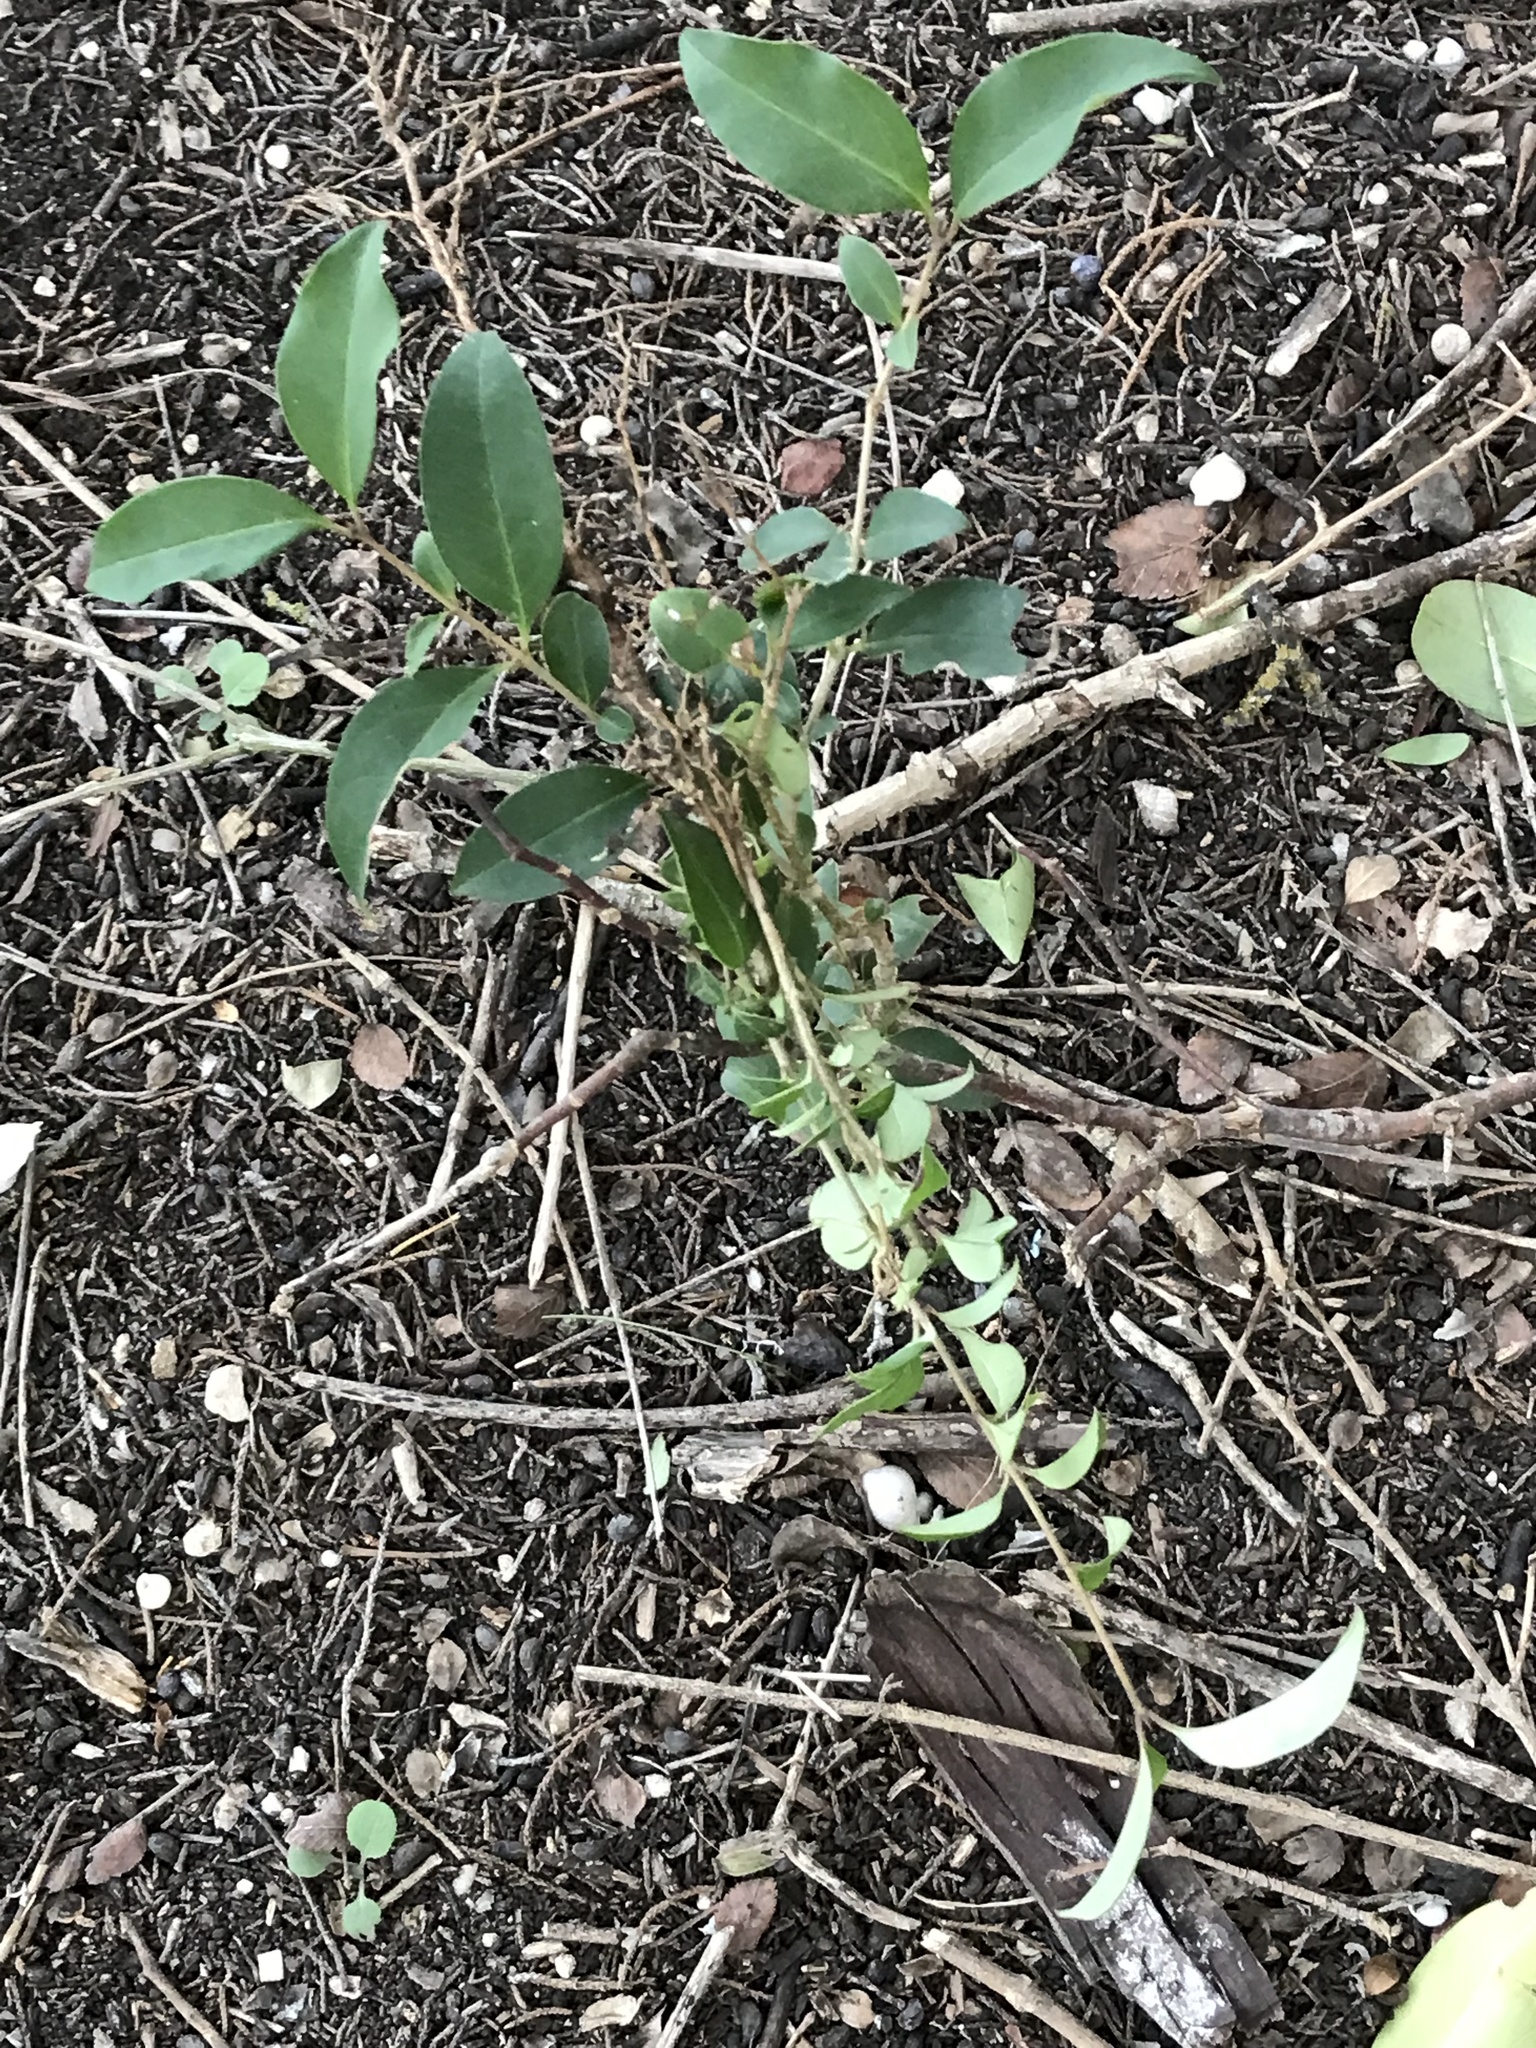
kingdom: Plantae
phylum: Tracheophyta
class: Magnoliopsida
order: Lamiales
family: Oleaceae
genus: Ligustrum
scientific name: Ligustrum lucidum
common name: Glossy privet
